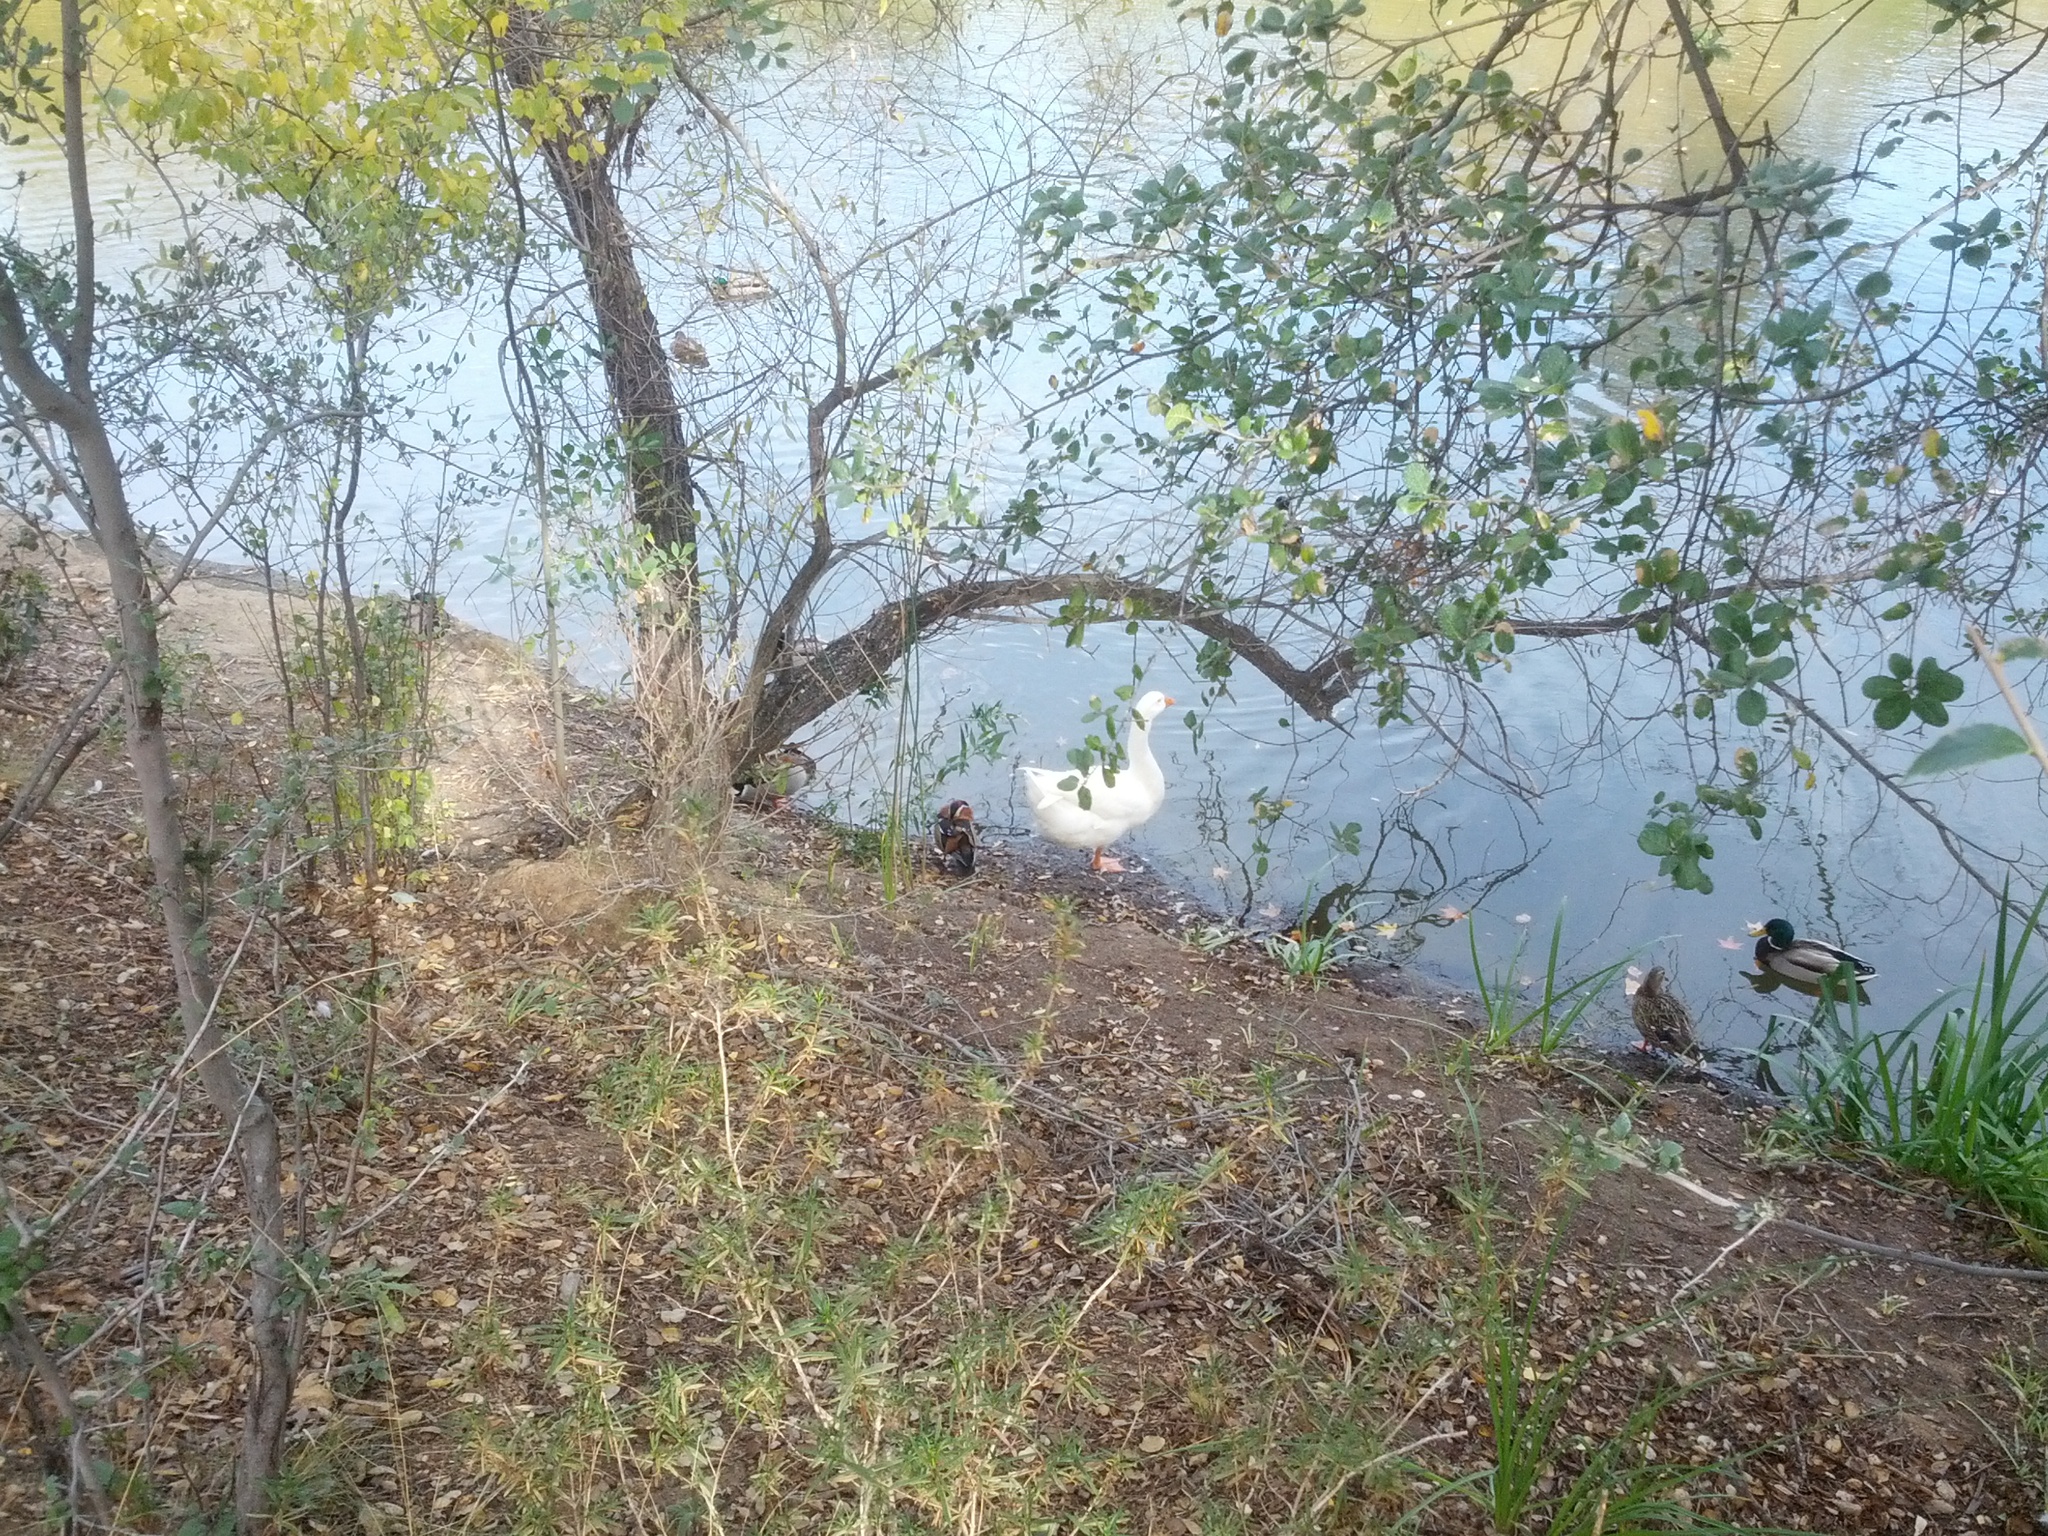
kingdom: Animalia
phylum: Chordata
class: Aves
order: Anseriformes
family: Anatidae
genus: Anser
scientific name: Anser anser
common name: Greylag goose
